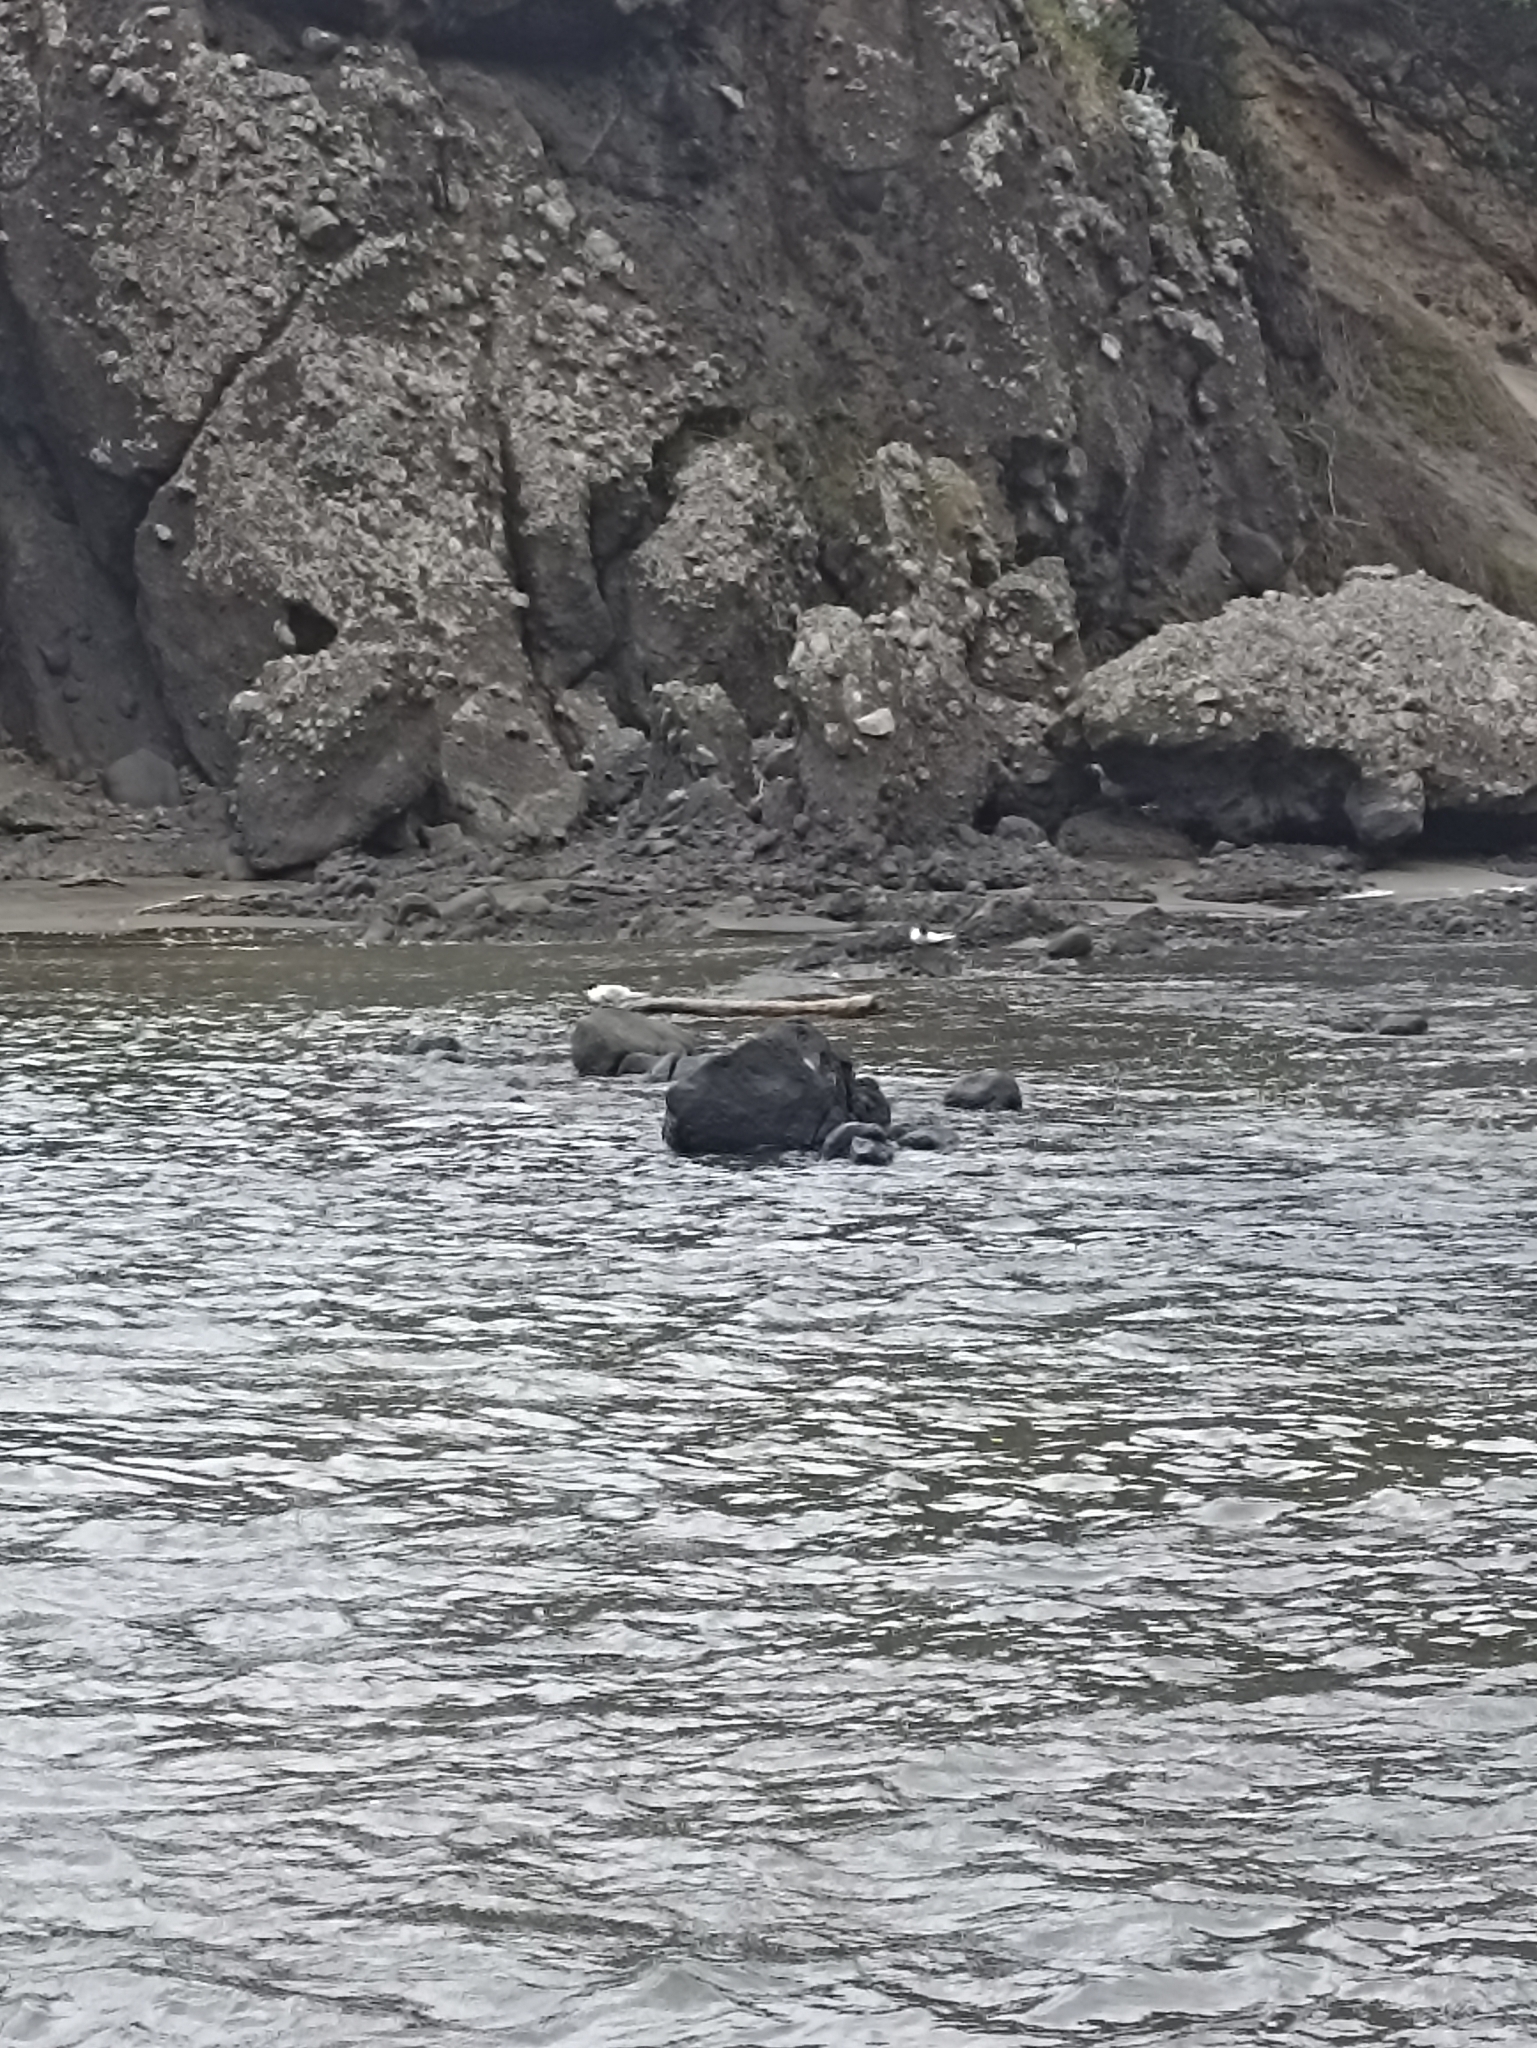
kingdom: Animalia
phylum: Chordata
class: Aves
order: Charadriiformes
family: Laridae
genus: Sterna
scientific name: Sterna striata
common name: White-fronted tern
